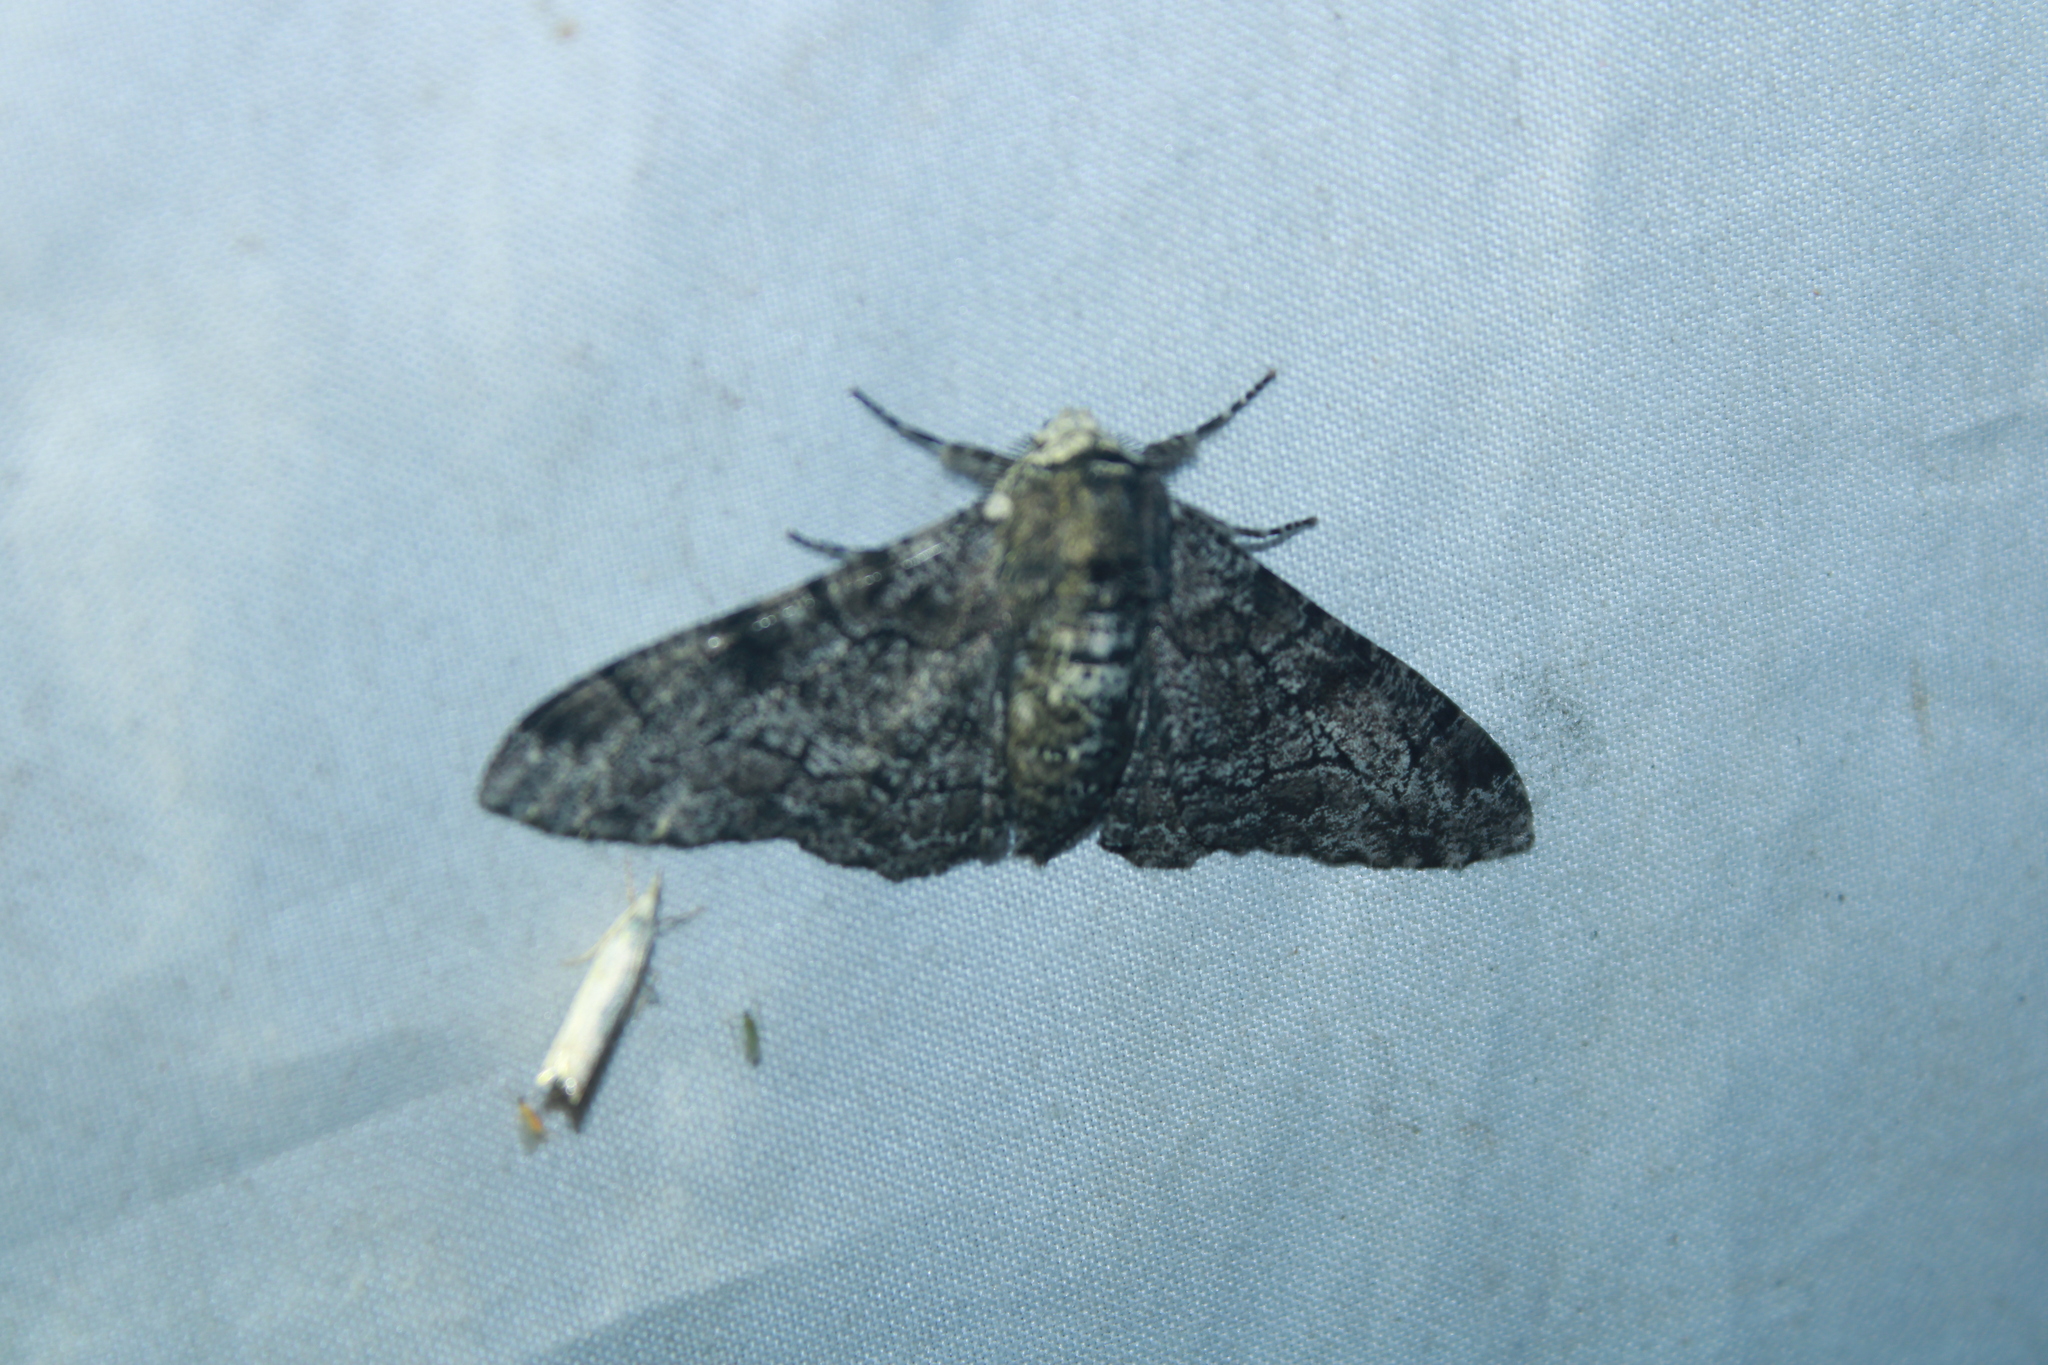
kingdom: Animalia
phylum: Arthropoda
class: Insecta
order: Lepidoptera
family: Geometridae
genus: Biston
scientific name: Biston betularia
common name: Peppered moth
